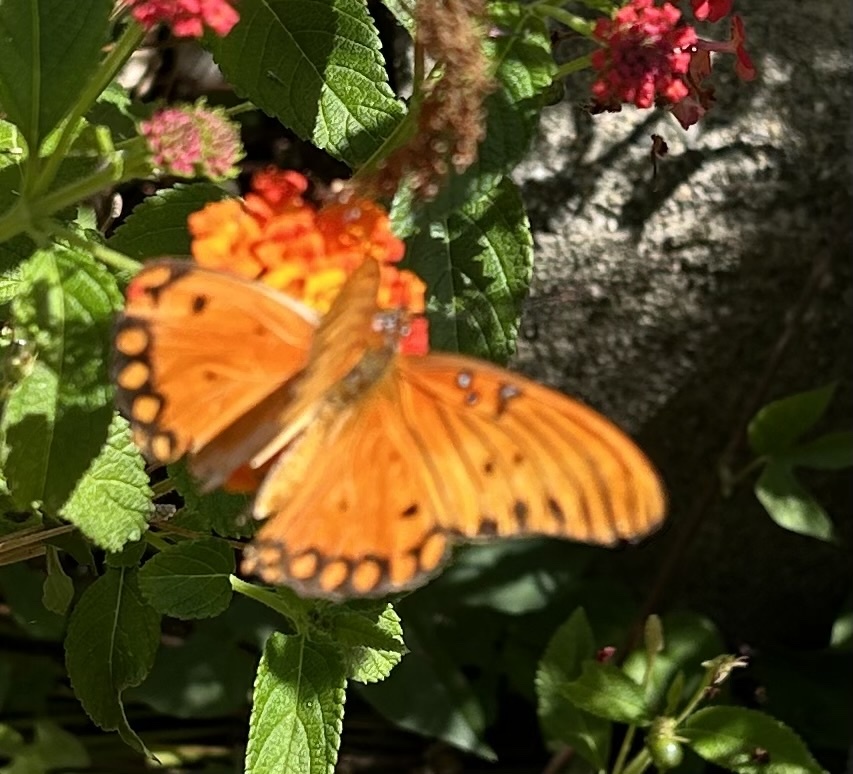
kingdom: Animalia
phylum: Arthropoda
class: Insecta
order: Lepidoptera
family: Nymphalidae
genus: Dione
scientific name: Dione vanillae
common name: Gulf fritillary
